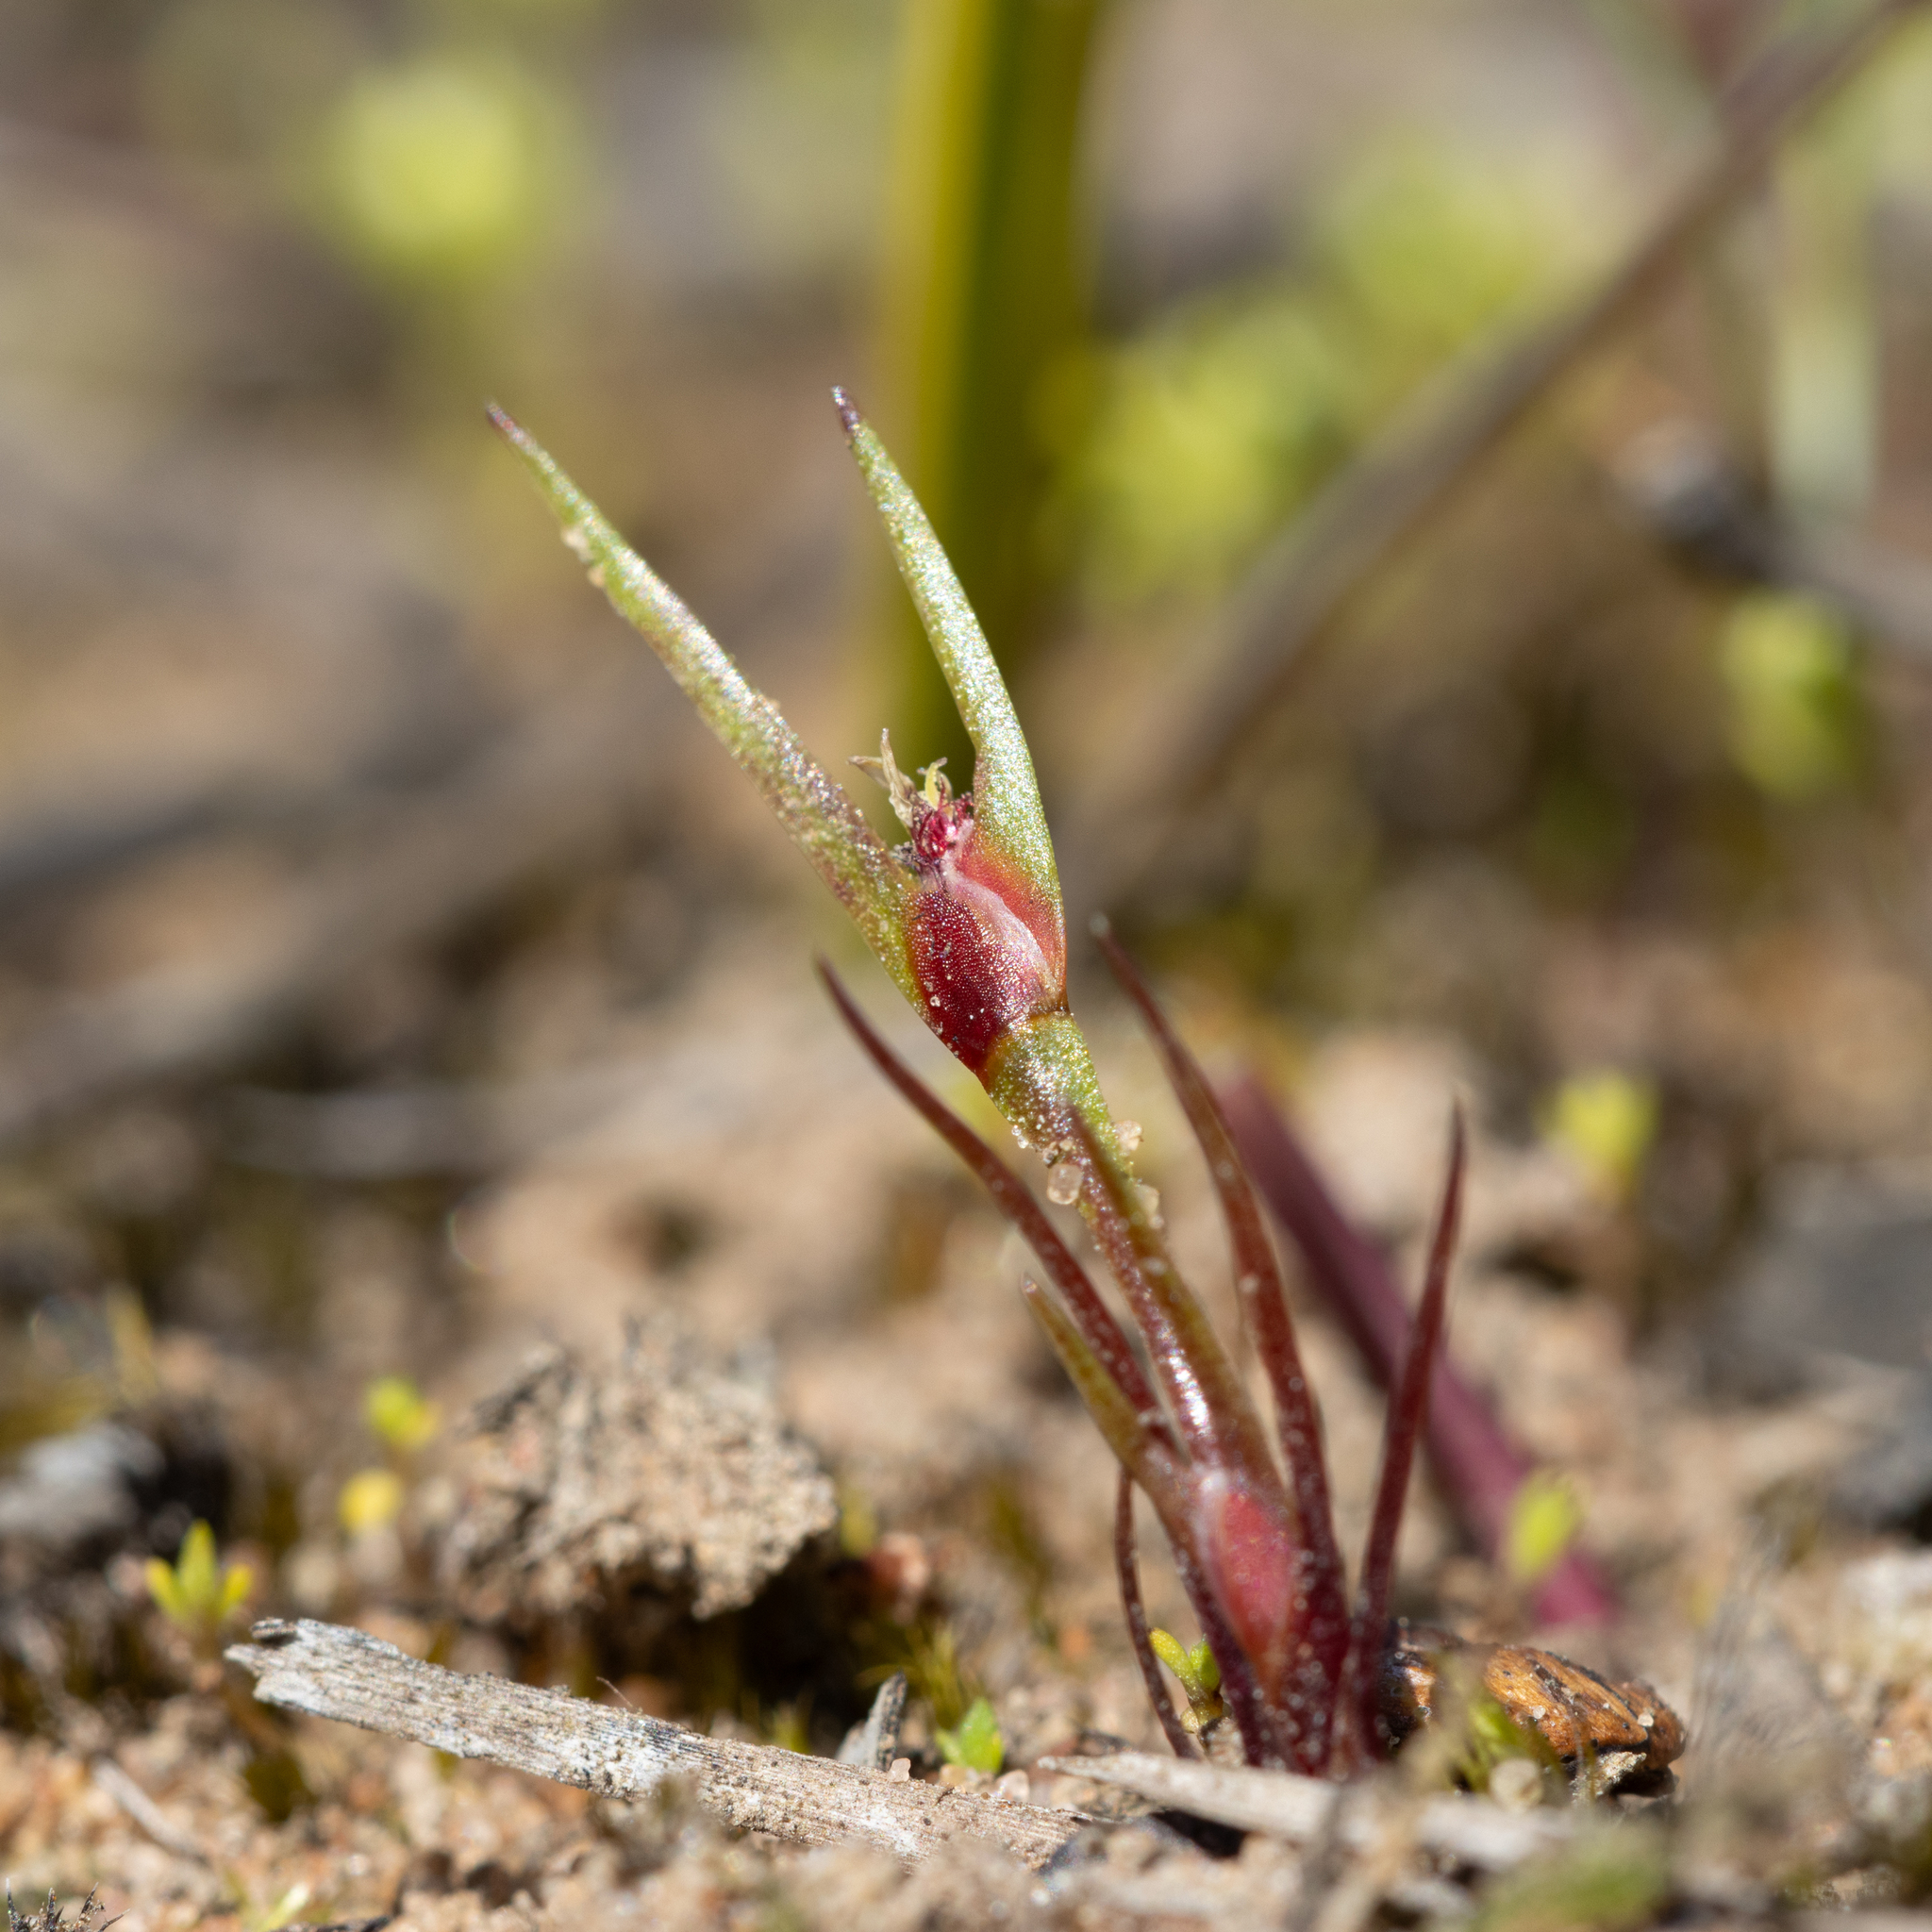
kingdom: Plantae
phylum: Tracheophyta
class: Liliopsida
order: Poales
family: Restionaceae
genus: Centrolepis
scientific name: Centrolepis aristata
